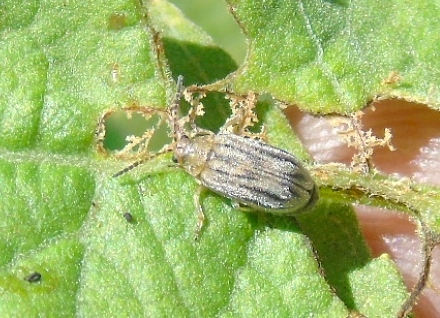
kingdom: Animalia
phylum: Arthropoda
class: Insecta
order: Coleoptera
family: Chrysomelidae
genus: Ophraella
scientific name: Ophraella
